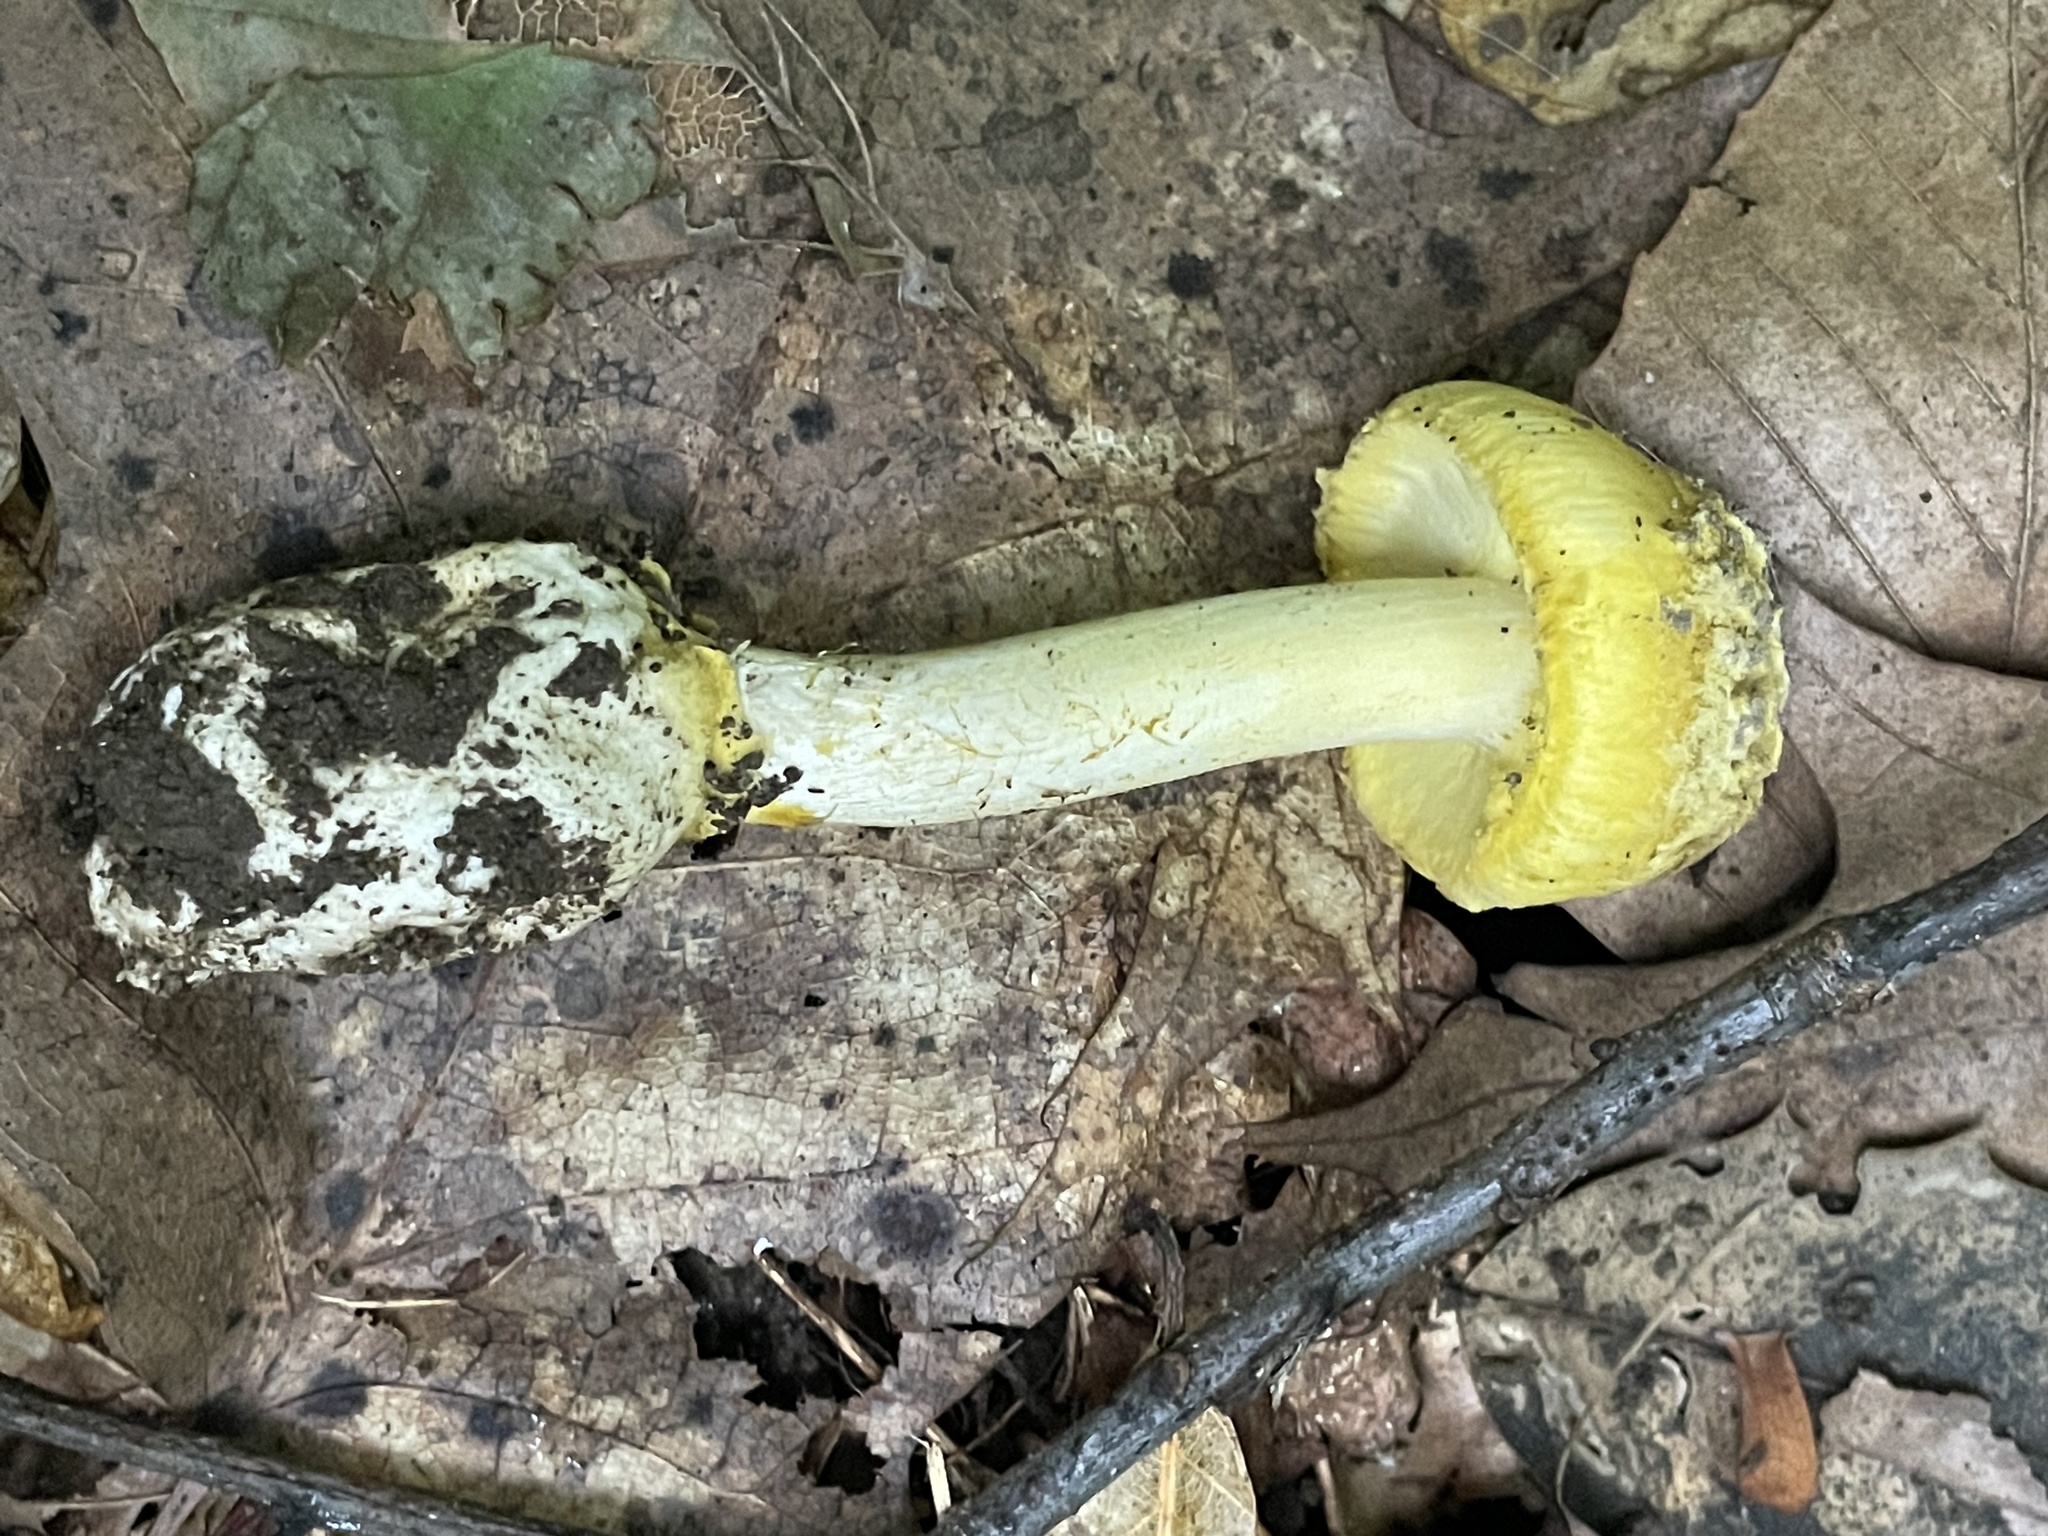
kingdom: Fungi
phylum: Basidiomycota
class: Agaricomycetes
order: Agaricales
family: Amanitaceae
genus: Amanita
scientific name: Amanita levistriata
